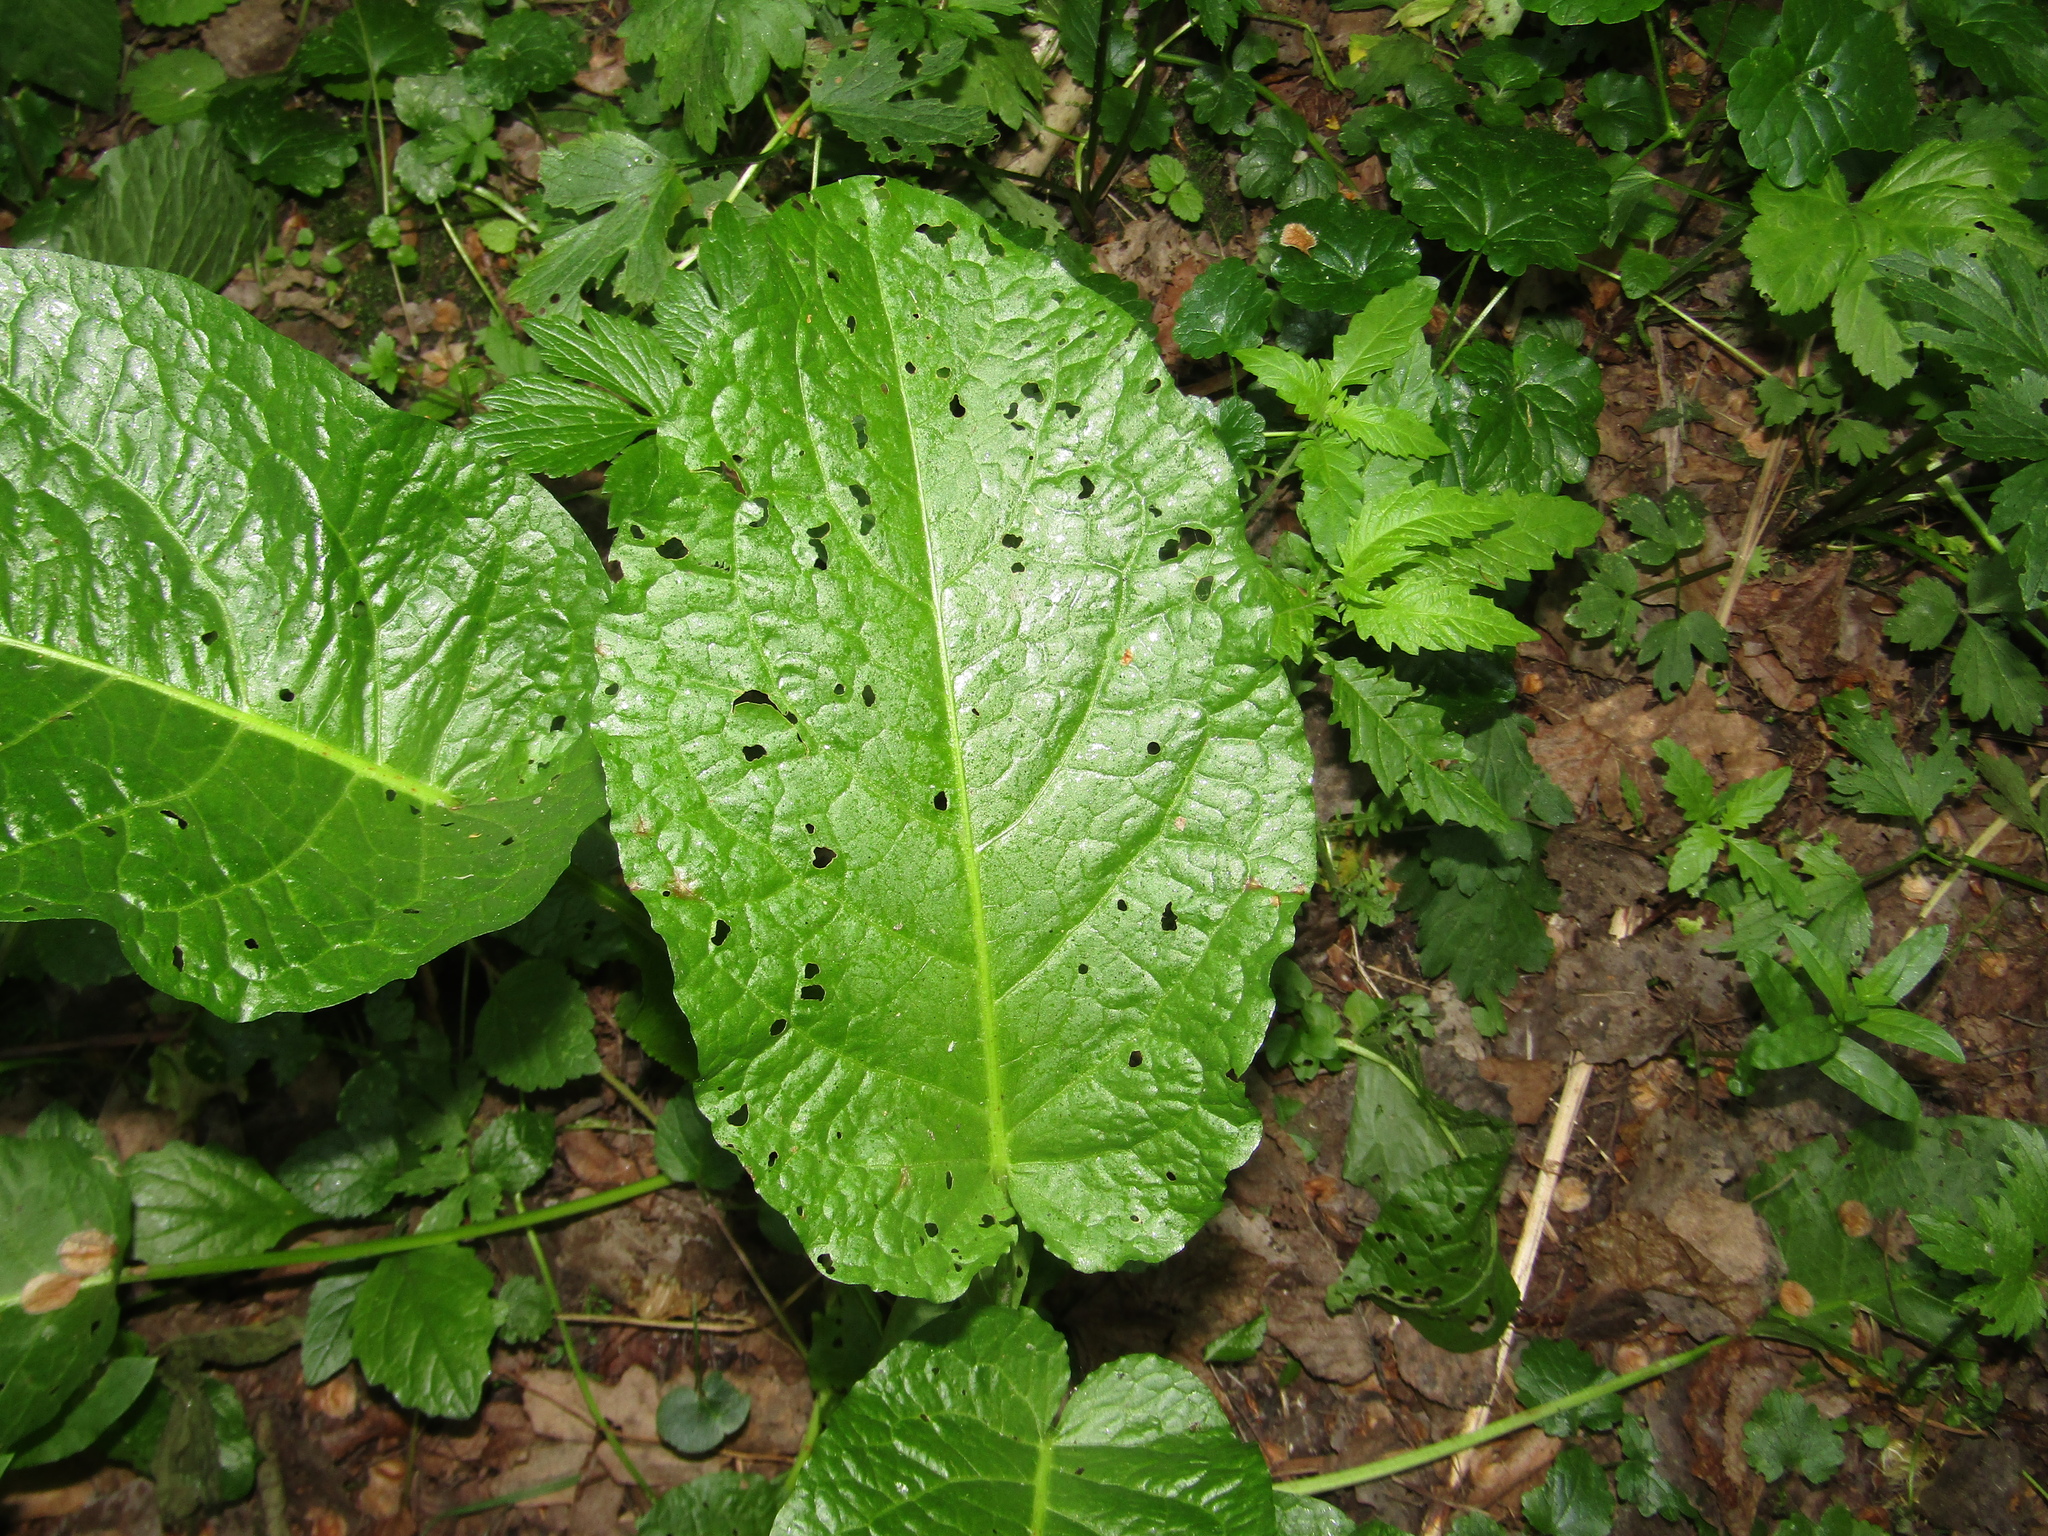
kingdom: Plantae
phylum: Tracheophyta
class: Magnoliopsida
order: Caryophyllales
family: Polygonaceae
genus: Rumex
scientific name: Rumex obtusifolius
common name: Bitter dock
